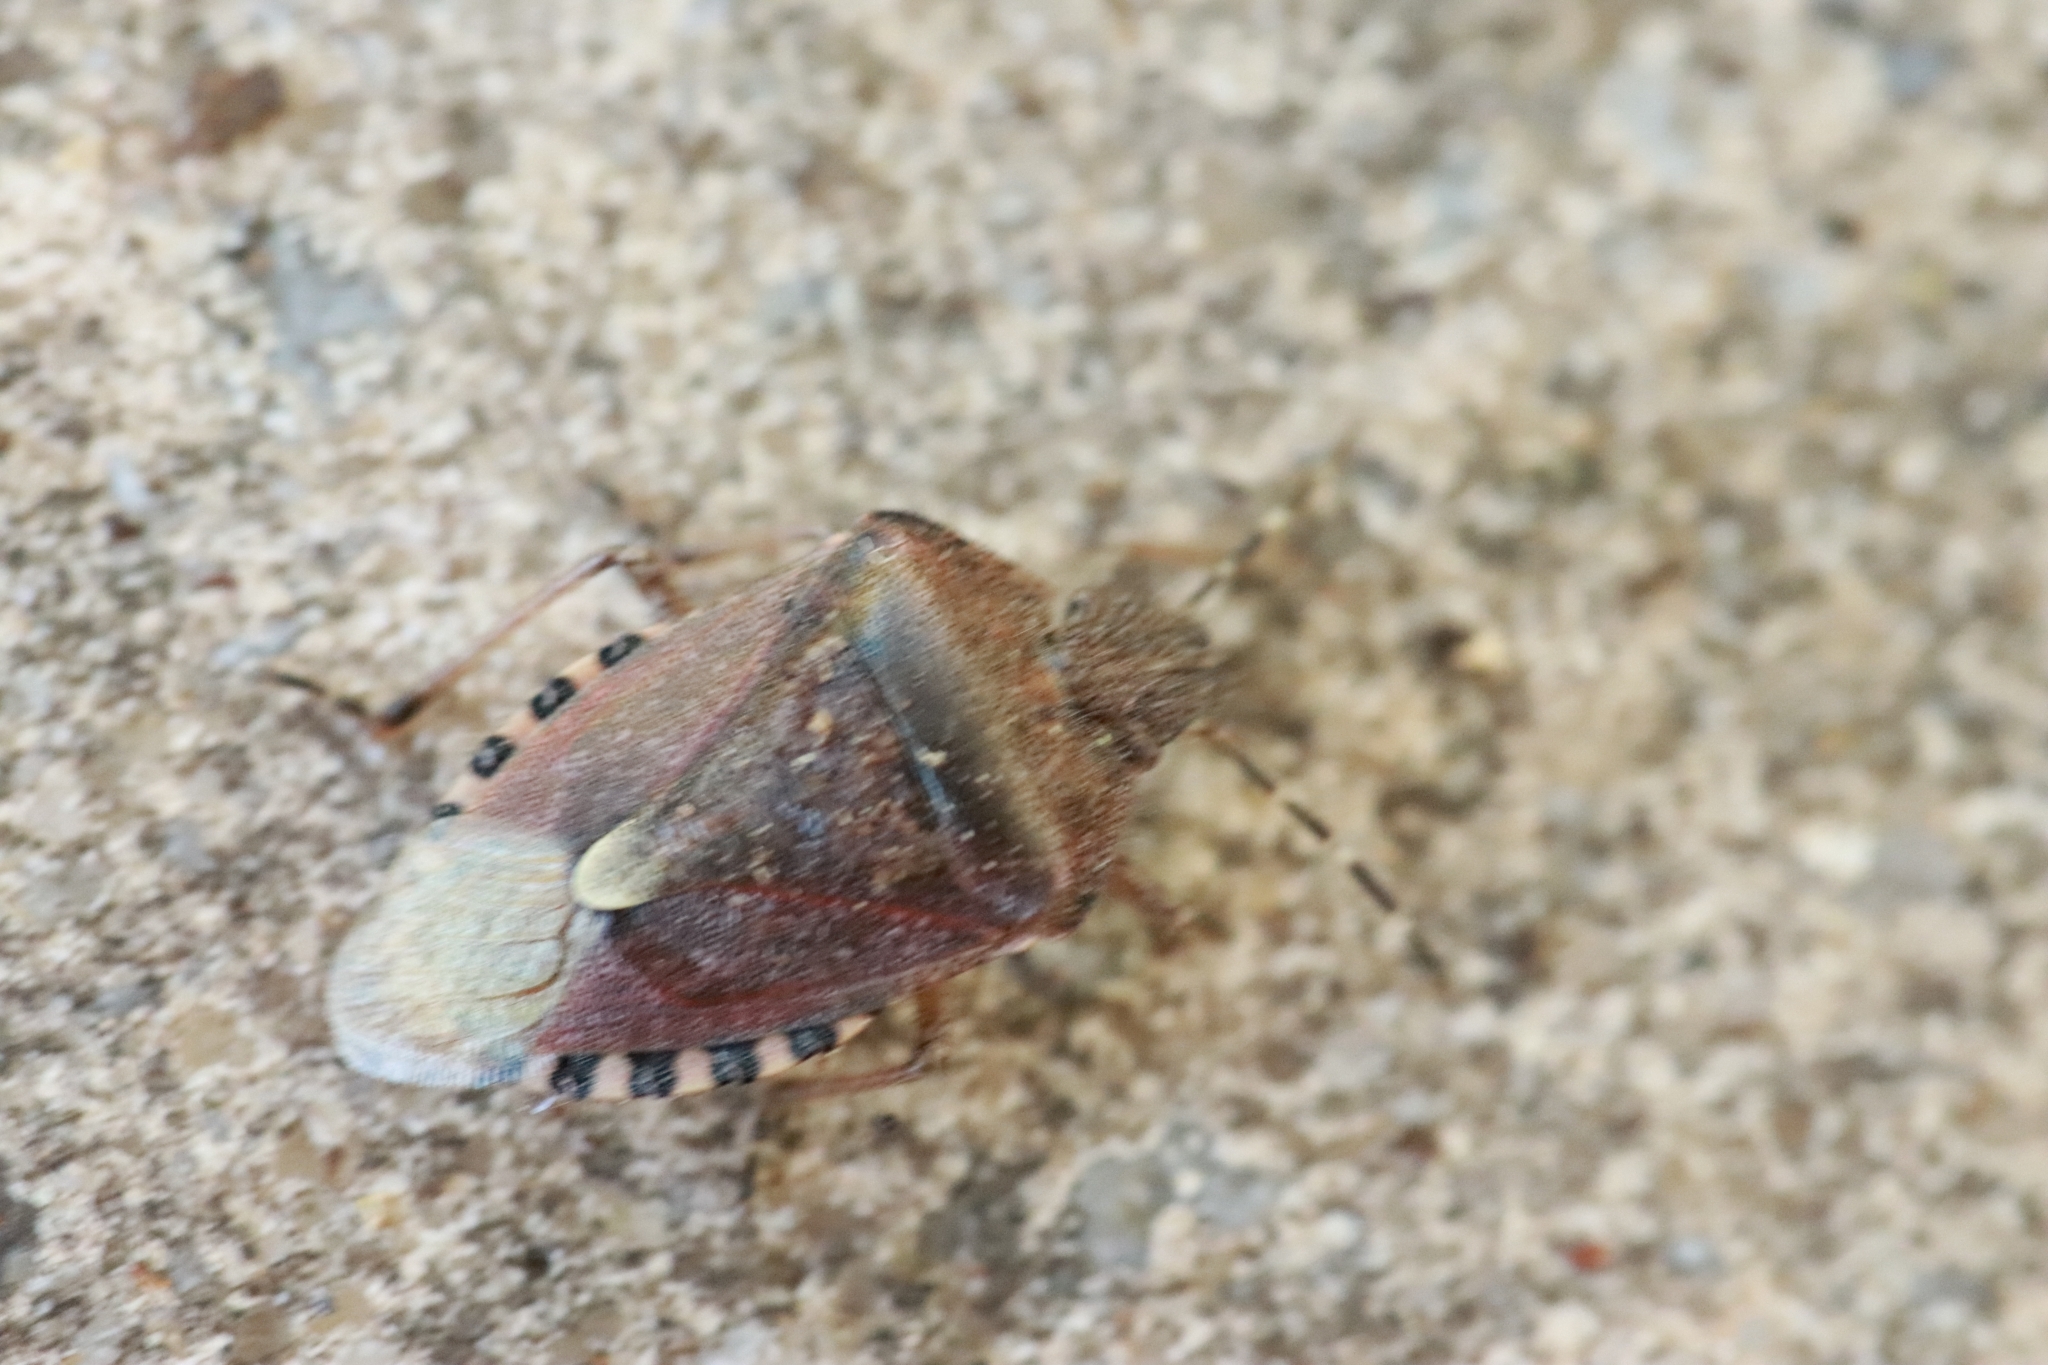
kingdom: Animalia
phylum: Arthropoda
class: Insecta
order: Hemiptera
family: Pentatomidae
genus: Dolycoris
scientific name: Dolycoris baccarum
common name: Sloe bug
